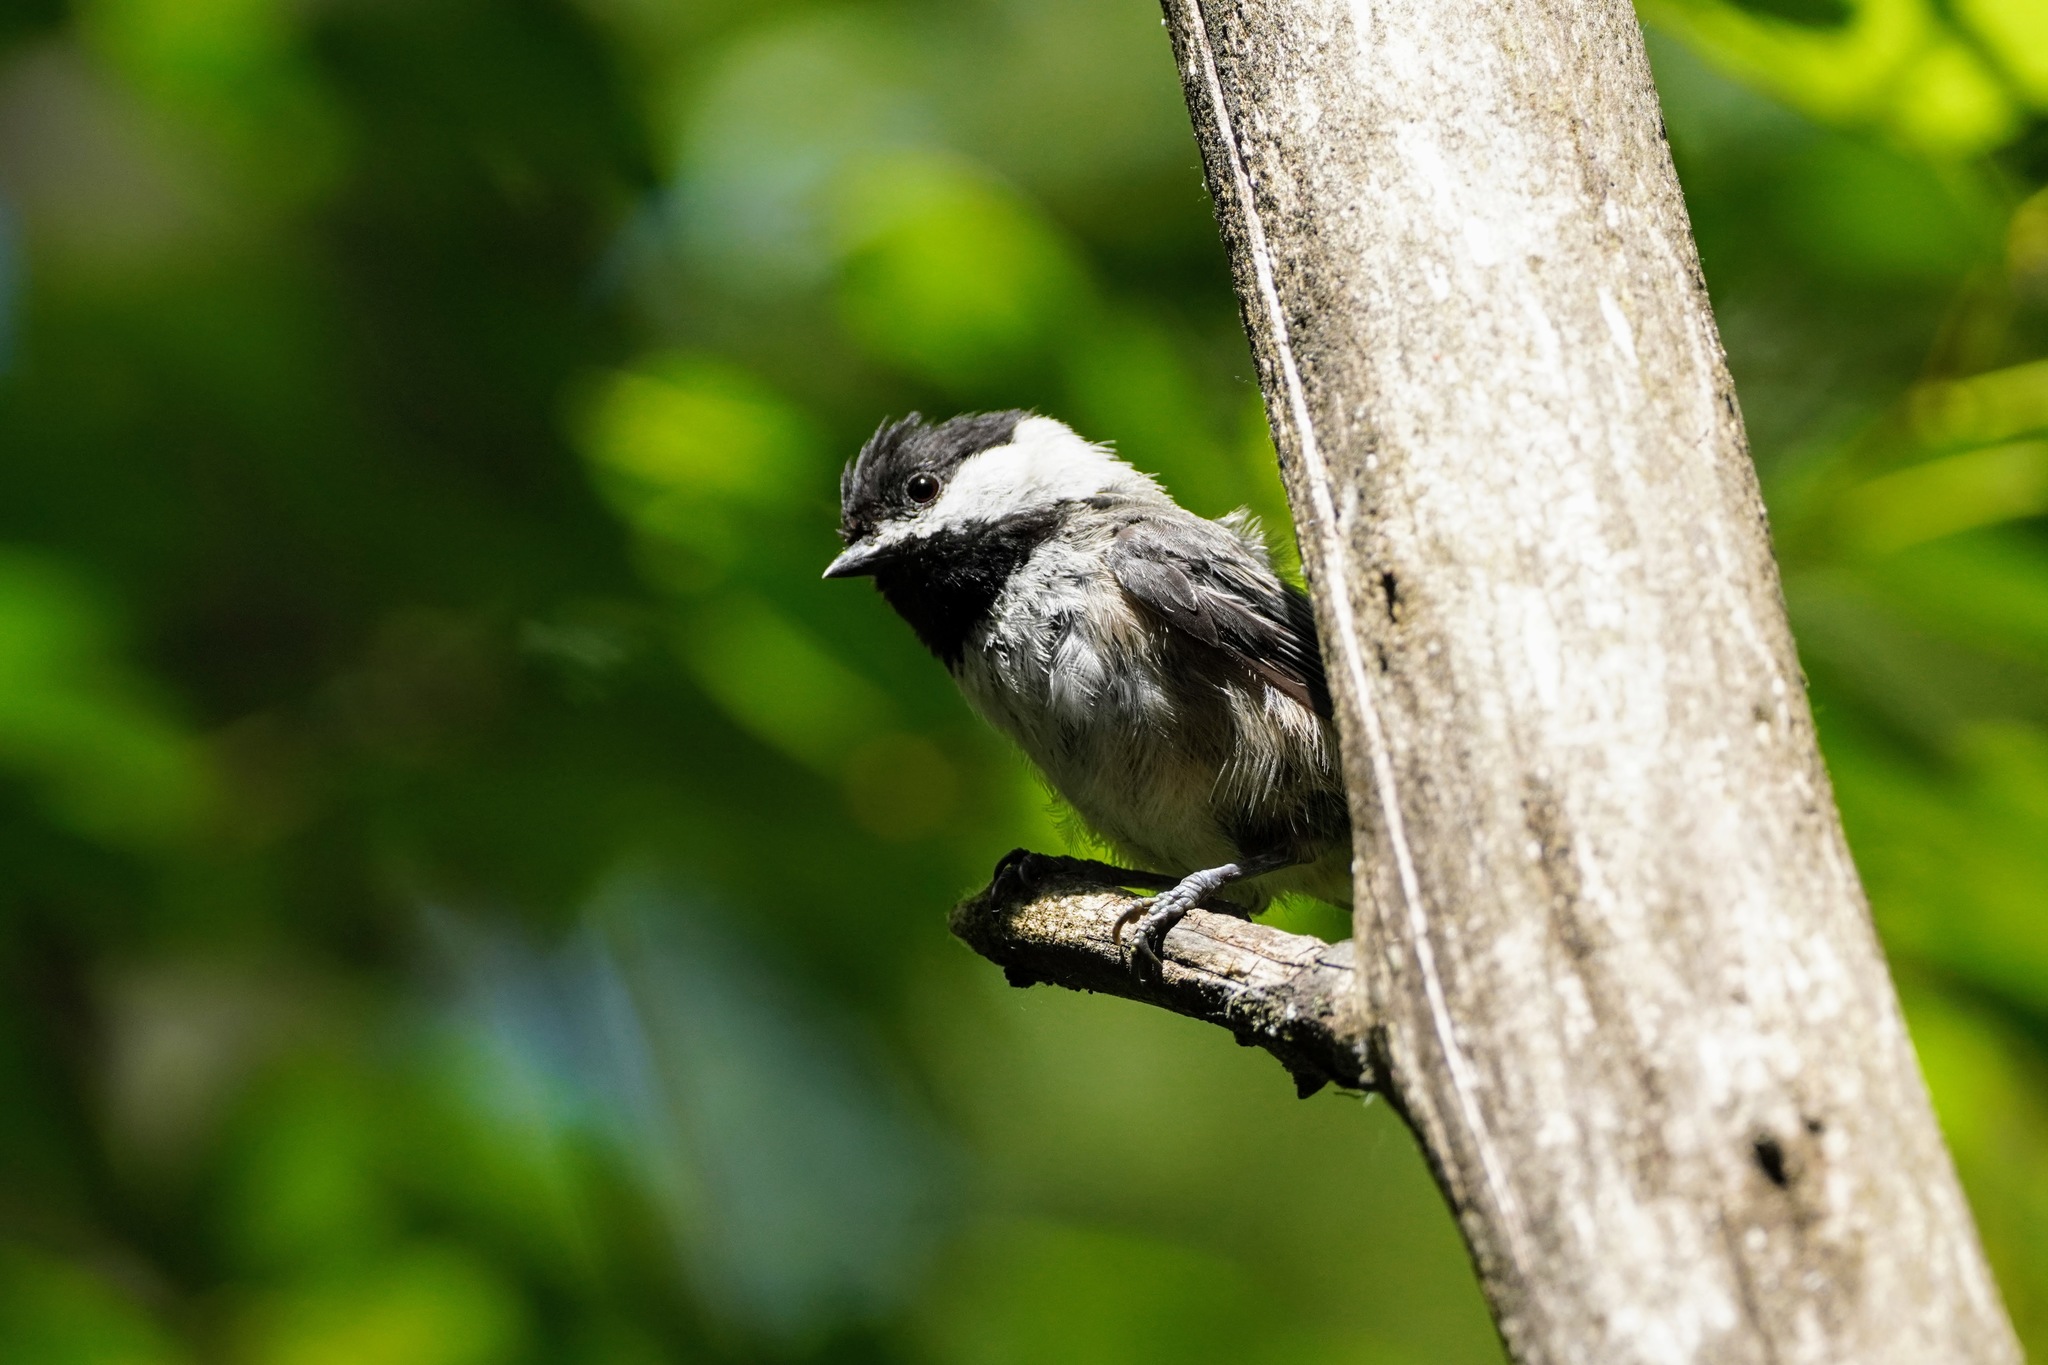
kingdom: Animalia
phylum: Chordata
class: Aves
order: Passeriformes
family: Paridae
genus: Poecile
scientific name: Poecile atricapillus
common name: Black-capped chickadee
